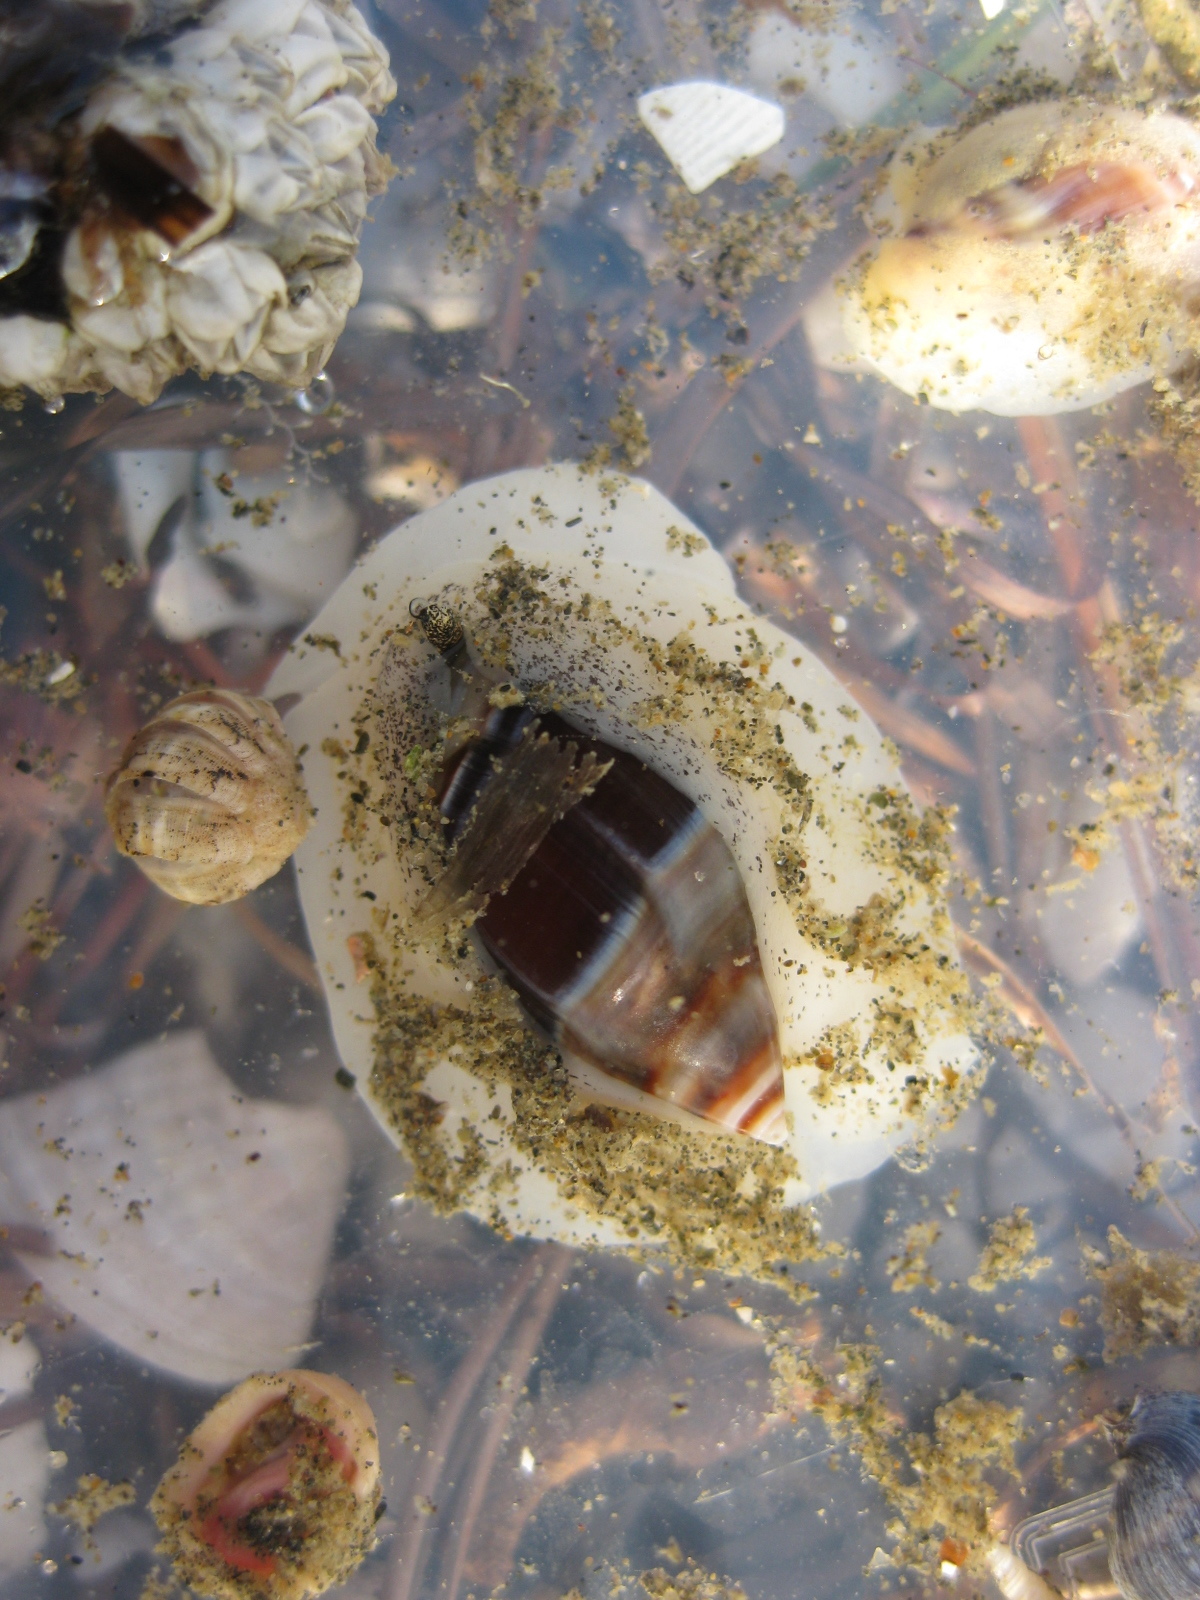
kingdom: Animalia
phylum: Mollusca
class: Gastropoda
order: Neogastropoda
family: Ancillariidae
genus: Amalda
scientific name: Amalda australis
